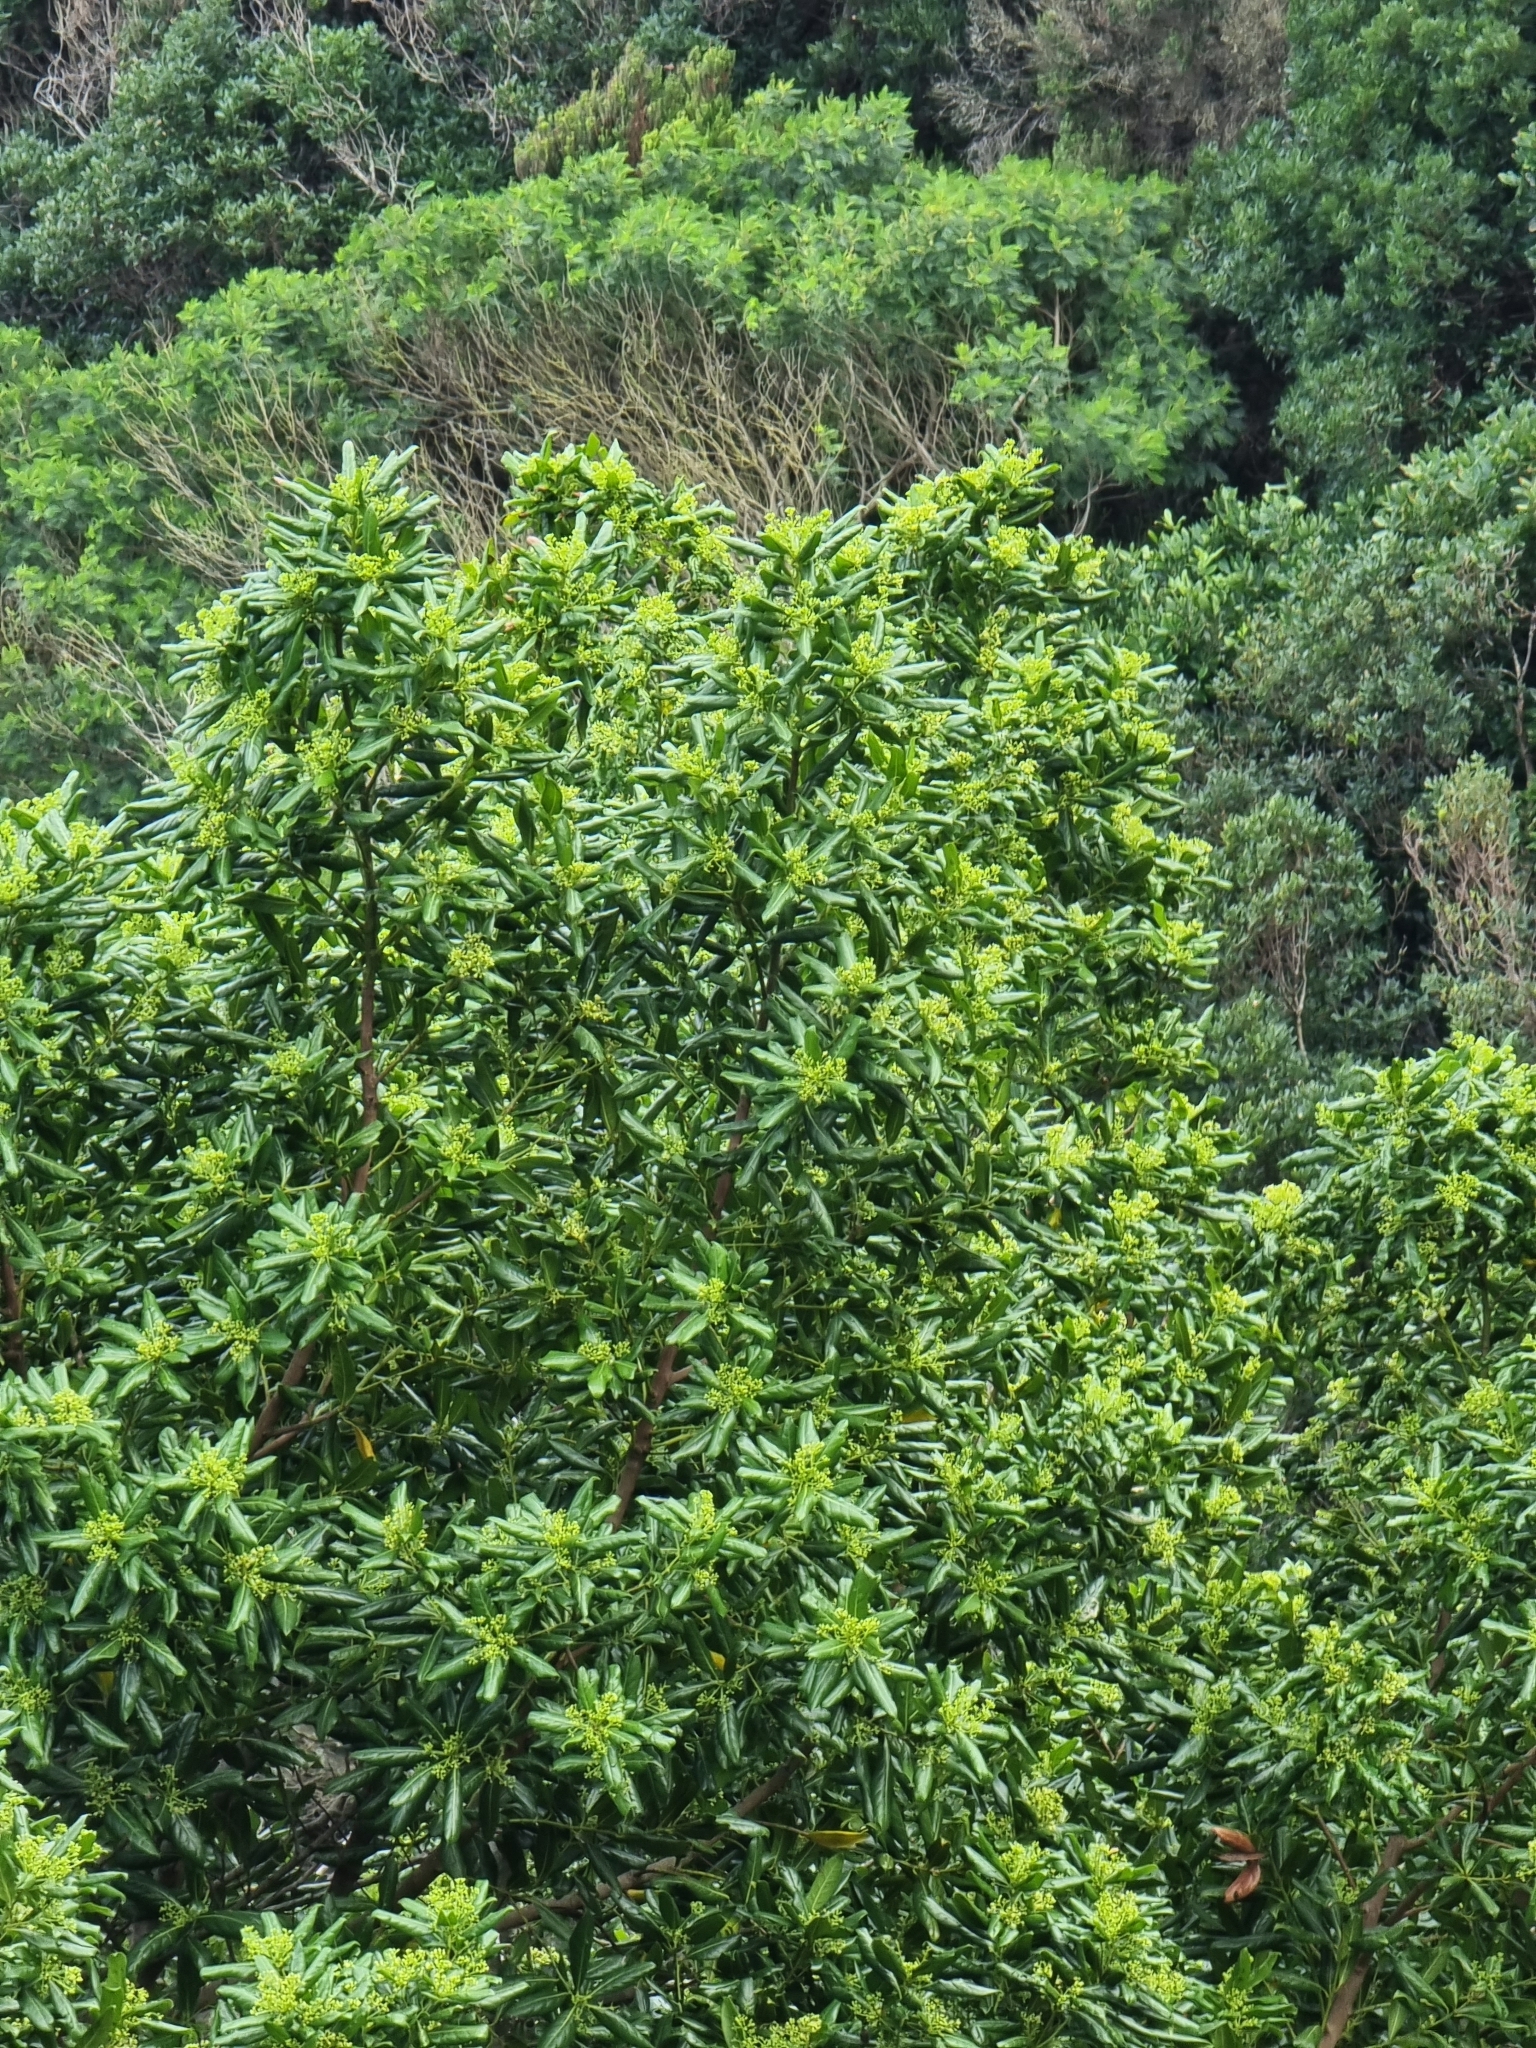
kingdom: Plantae
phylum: Tracheophyta
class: Magnoliopsida
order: Laurales
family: Lauraceae
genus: Apollonias
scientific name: Apollonias barbujana
